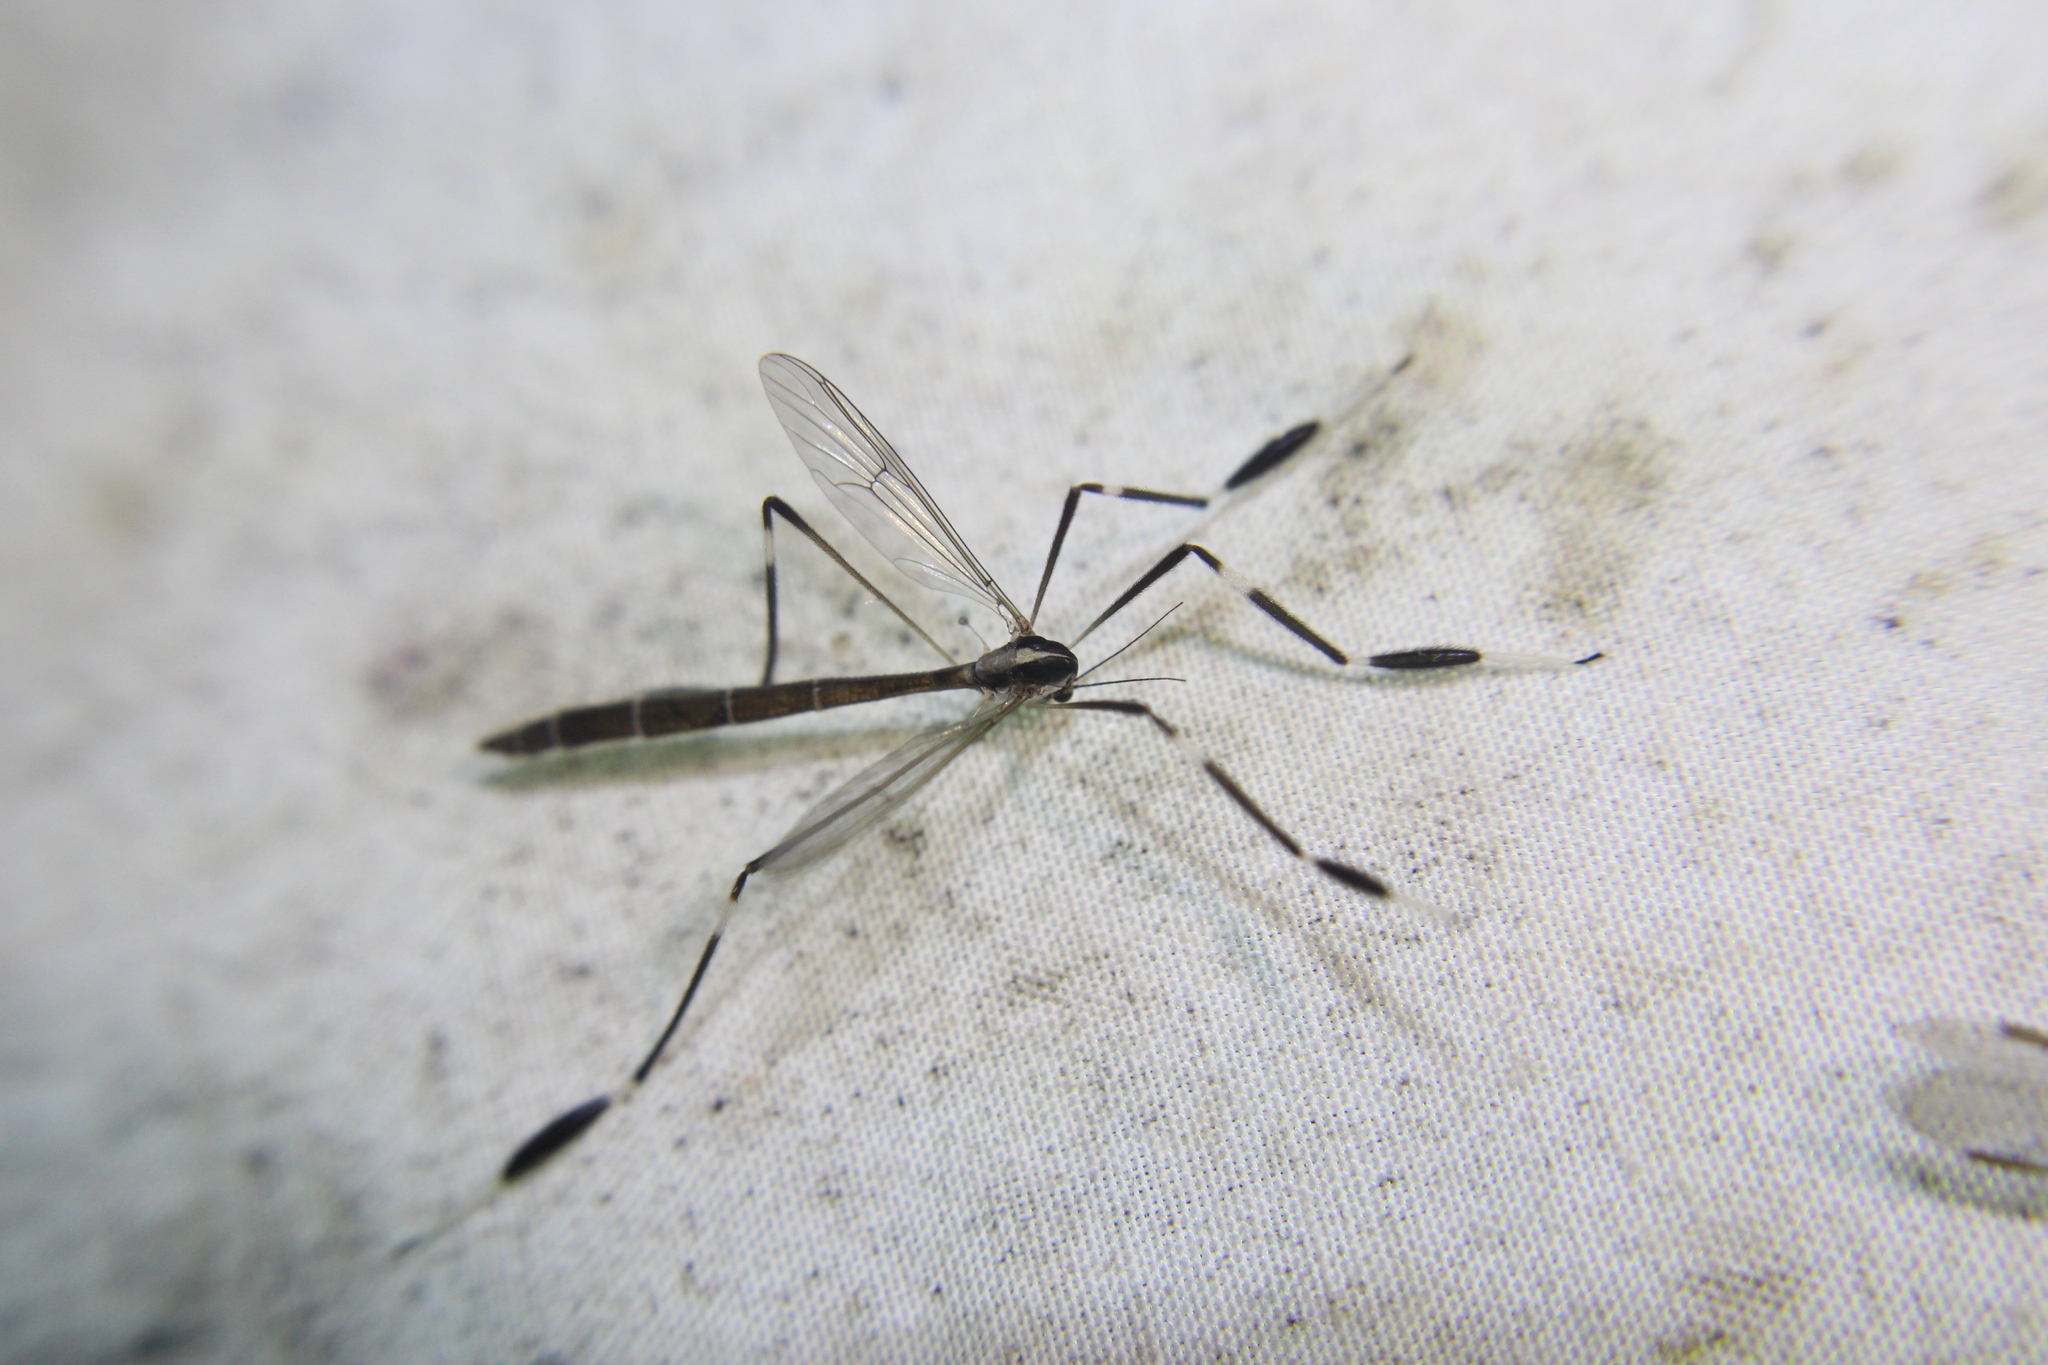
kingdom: Animalia
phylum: Arthropoda
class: Insecta
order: Diptera
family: Ptychopteridae
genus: Bittacomorpha
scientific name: Bittacomorpha clavipes
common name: Eastern phantom crane fly
